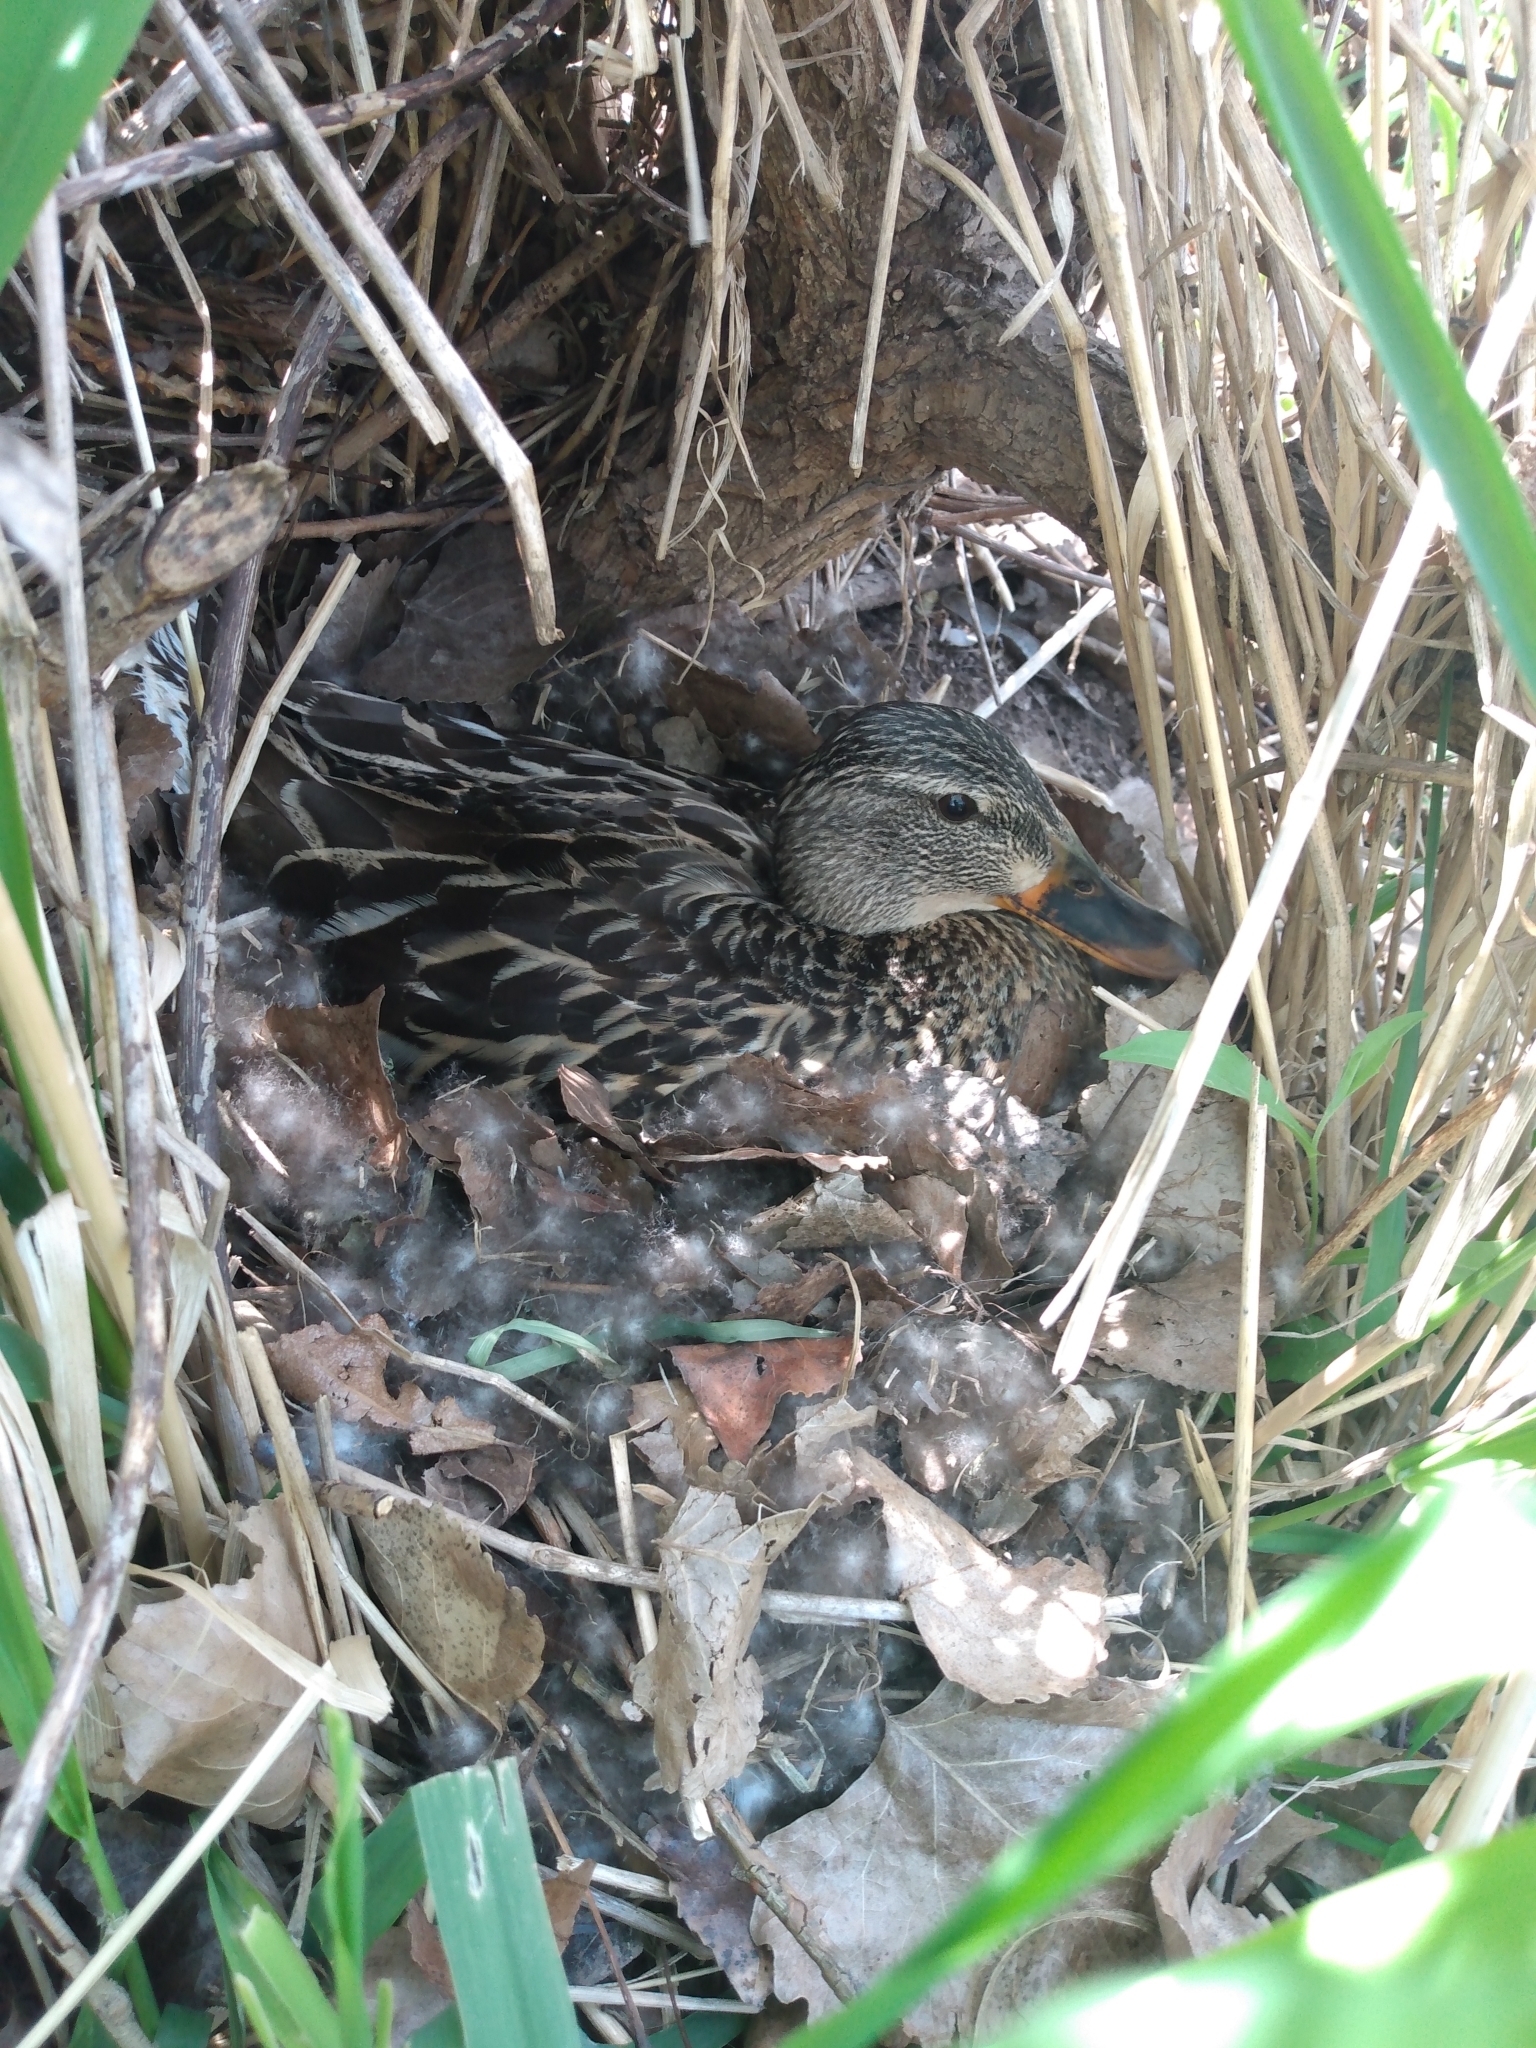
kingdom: Animalia
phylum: Chordata
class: Aves
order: Anseriformes
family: Anatidae
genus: Anas
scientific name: Anas platyrhynchos
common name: Mallard
